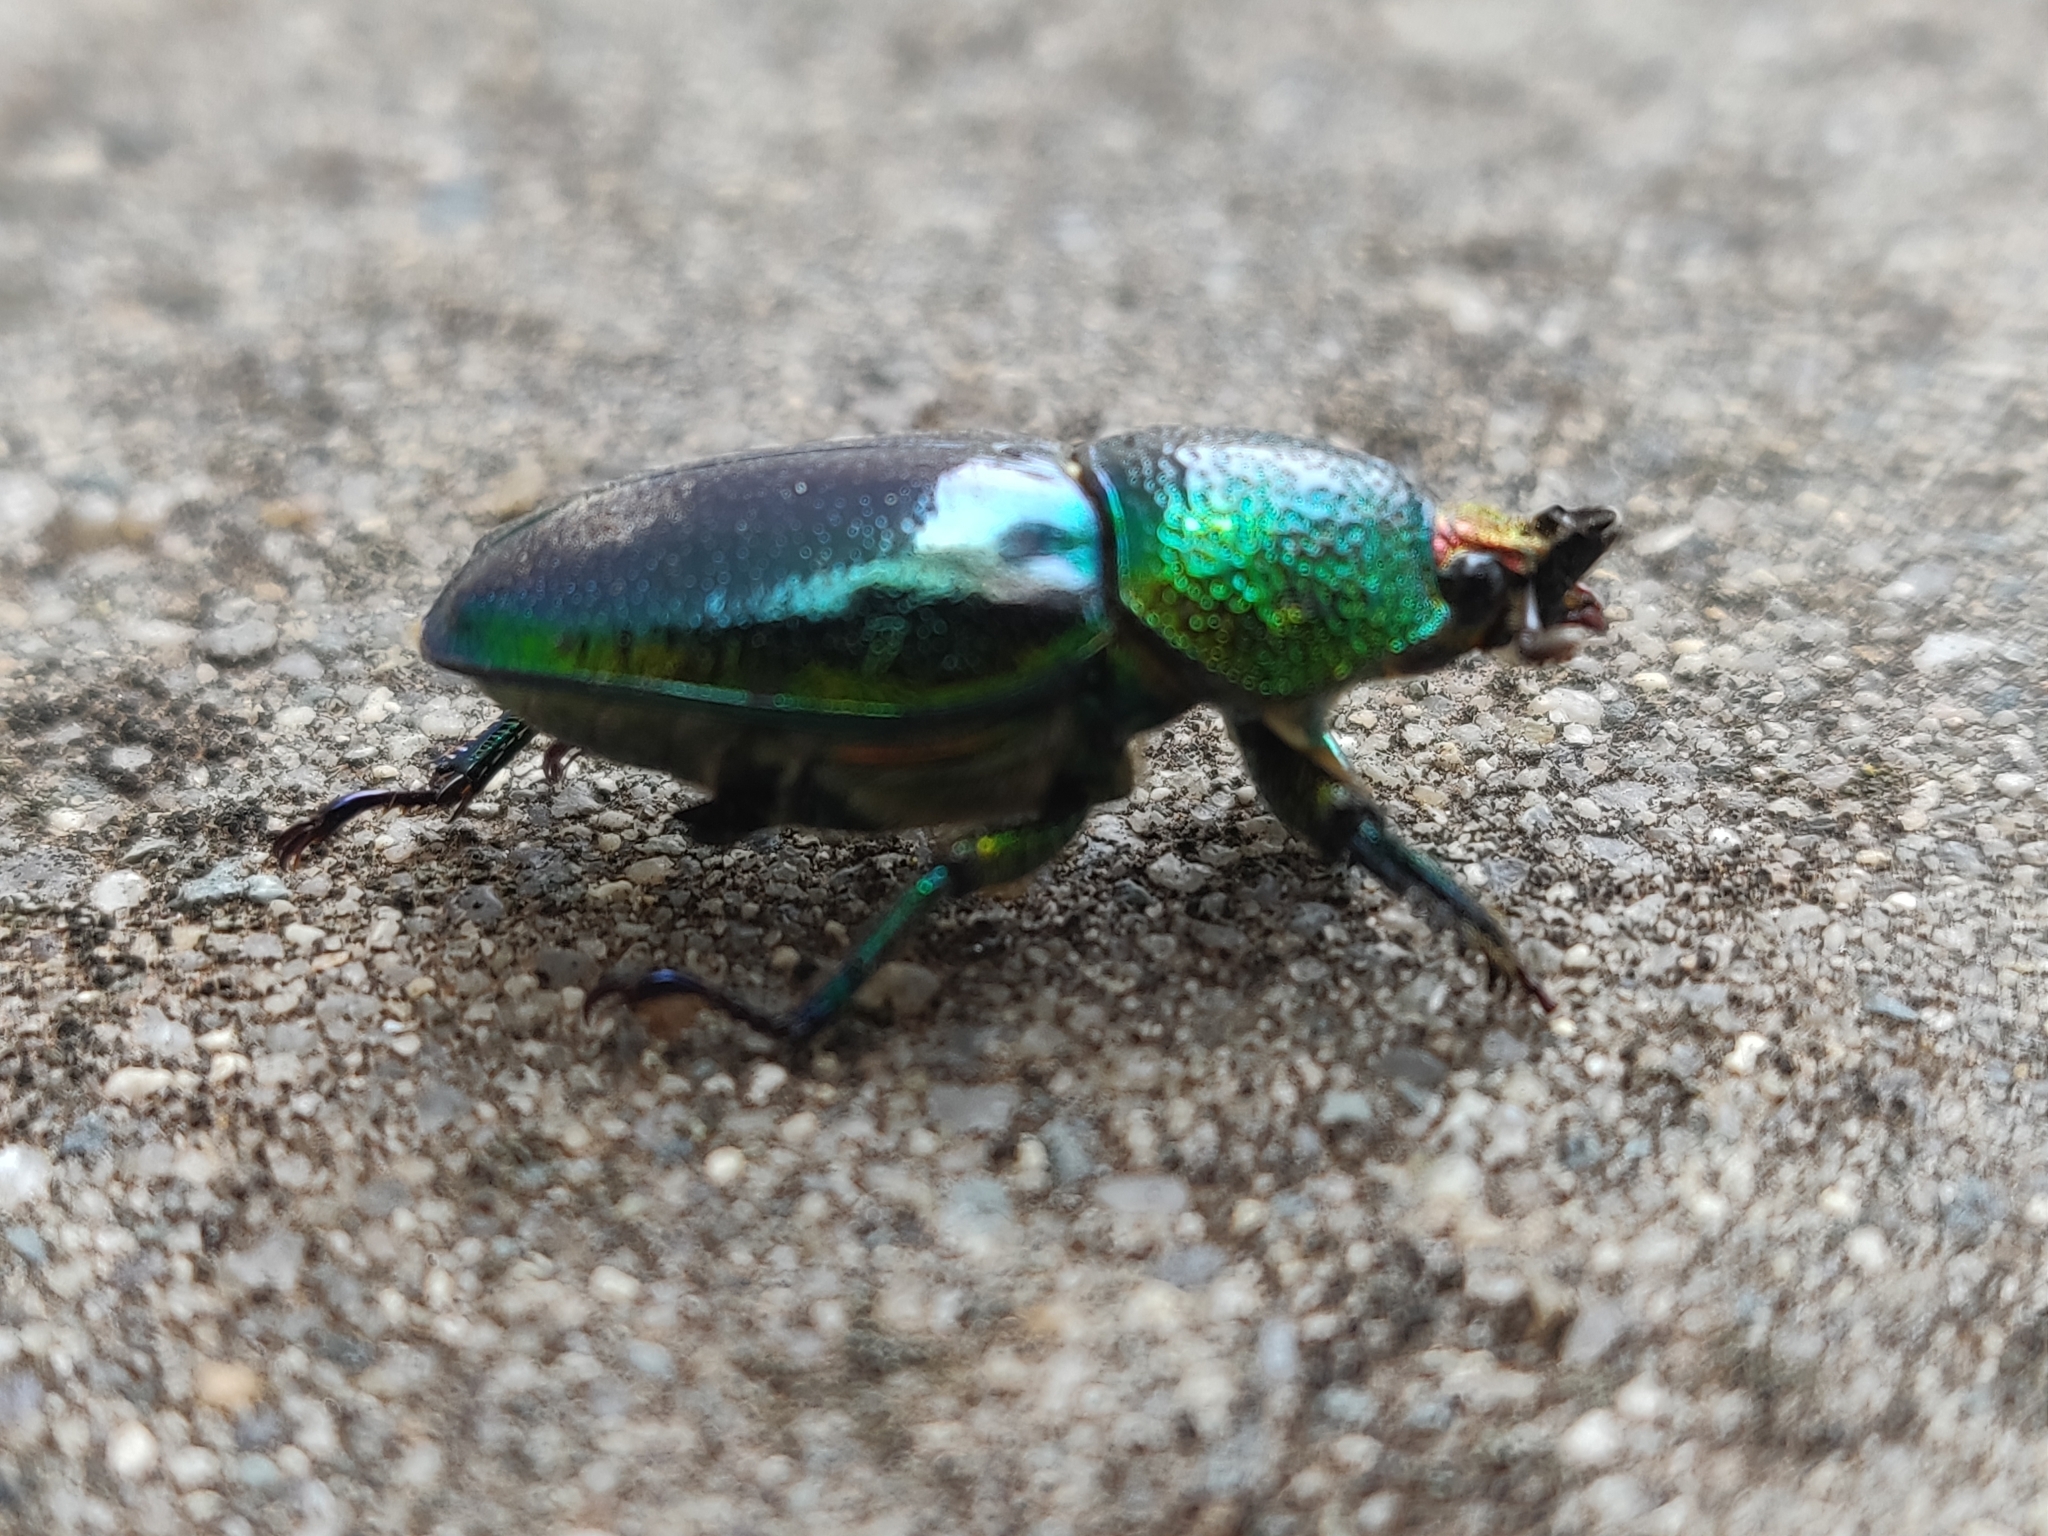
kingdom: Animalia
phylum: Arthropoda
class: Insecta
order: Coleoptera
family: Lucanidae
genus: Lamprima
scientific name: Lamprima aurata
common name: Golden stag beetle
